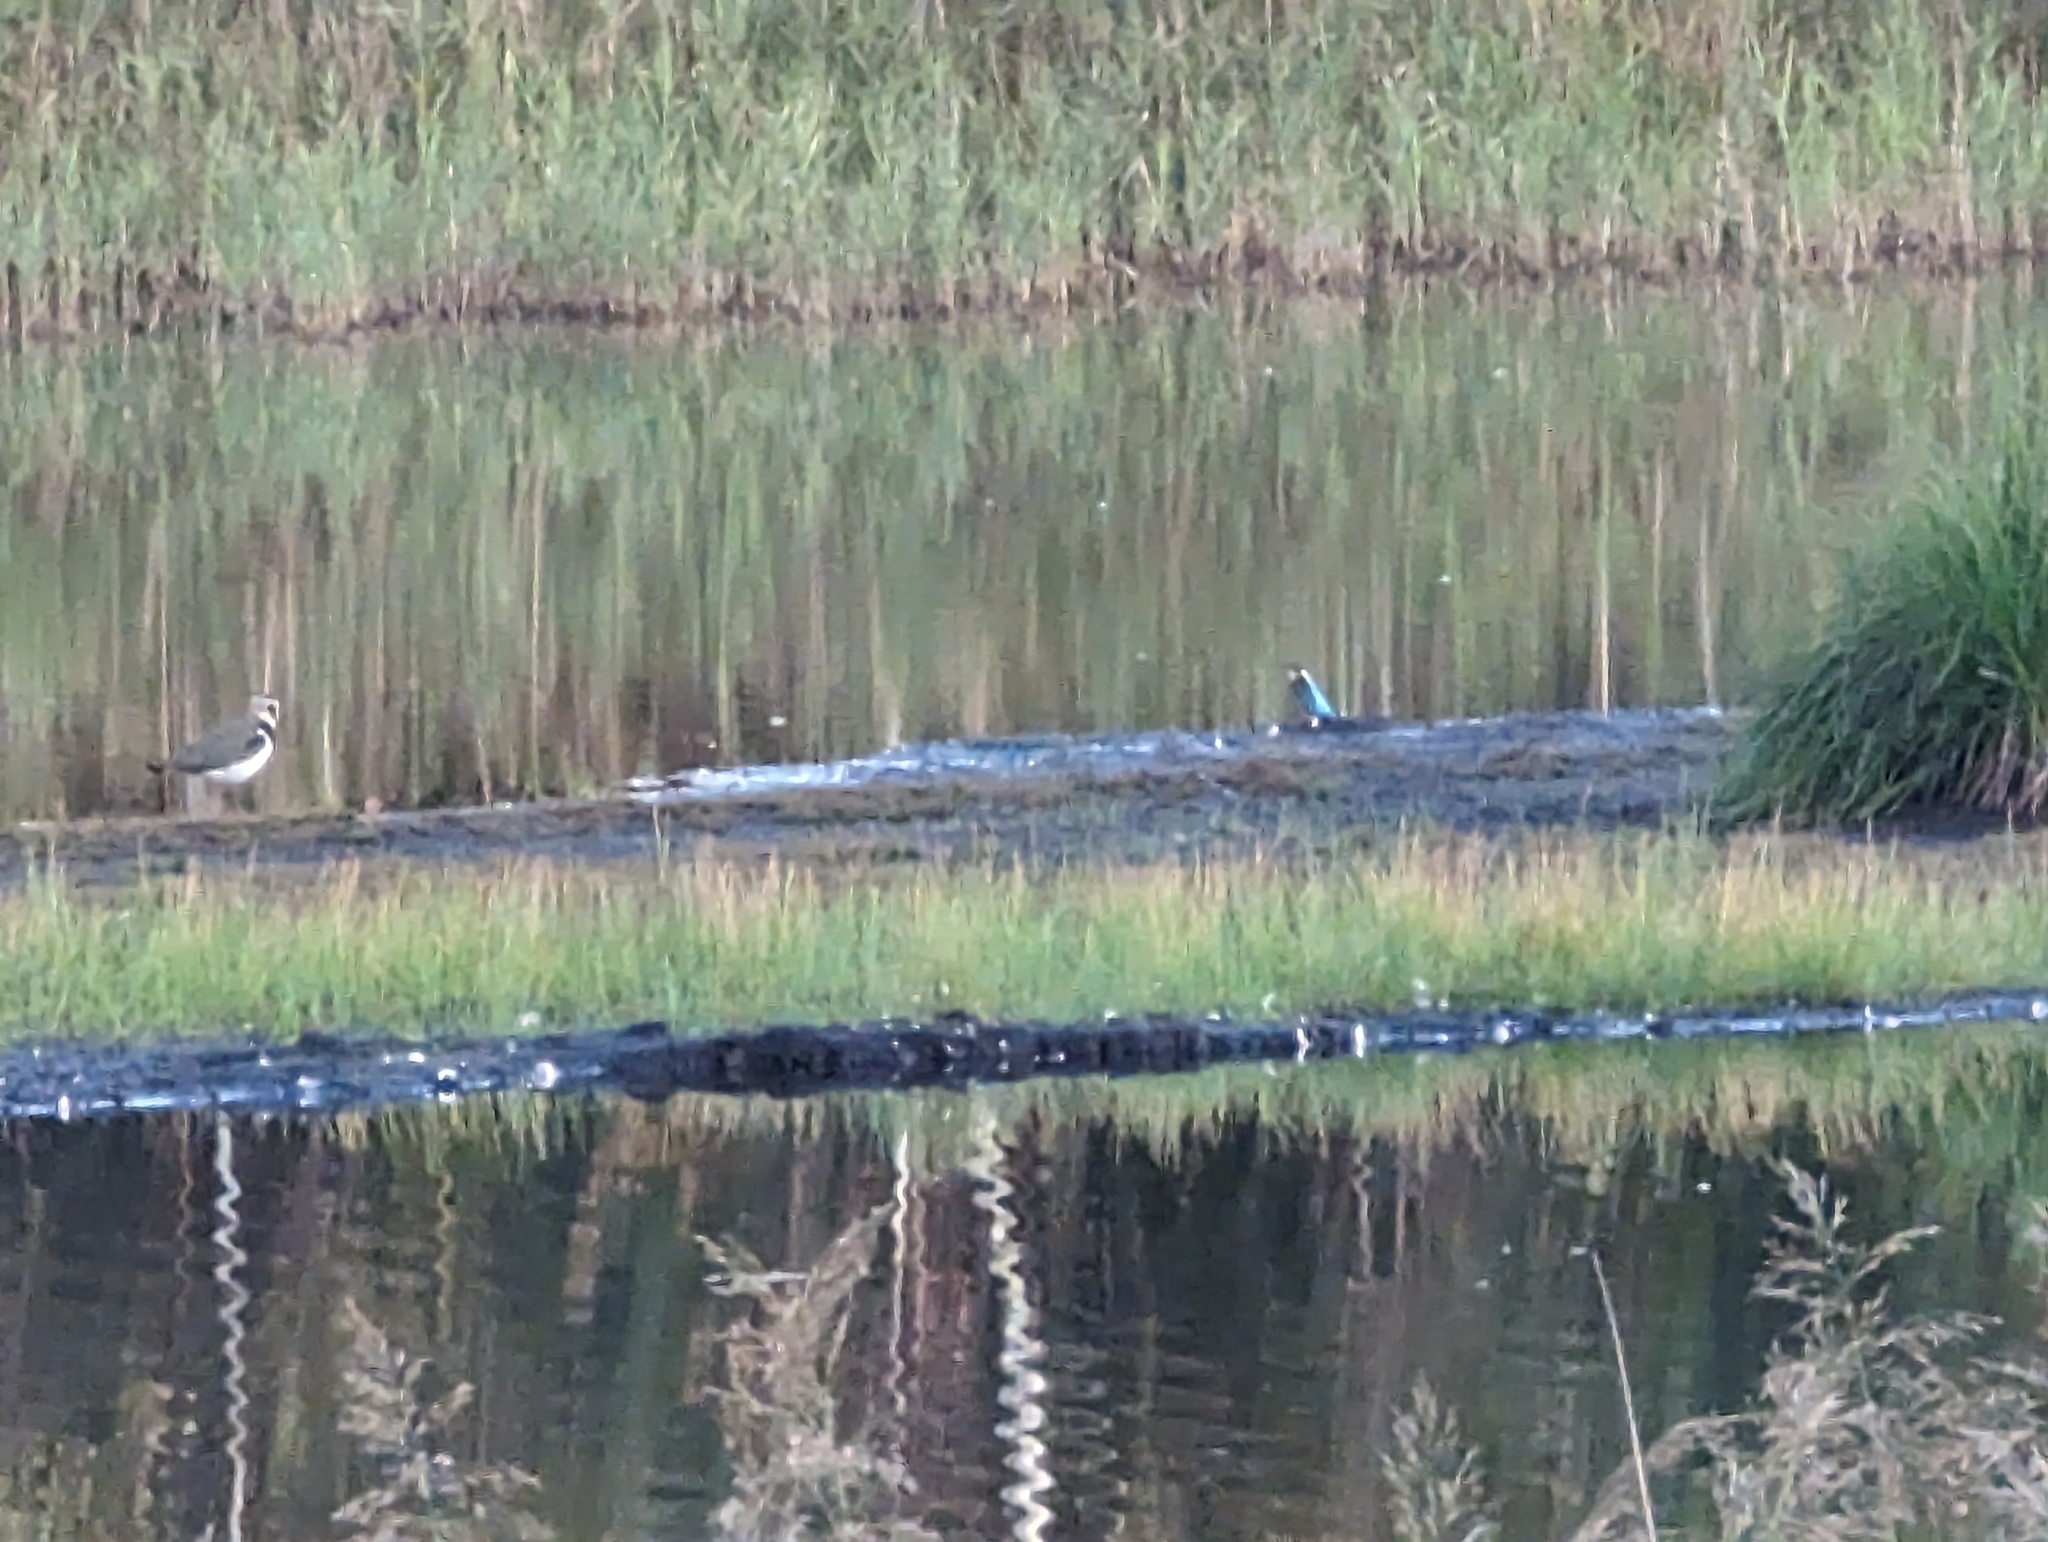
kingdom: Animalia
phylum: Chordata
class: Aves
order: Coraciiformes
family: Alcedinidae
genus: Alcedo
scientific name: Alcedo atthis
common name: Common kingfisher
